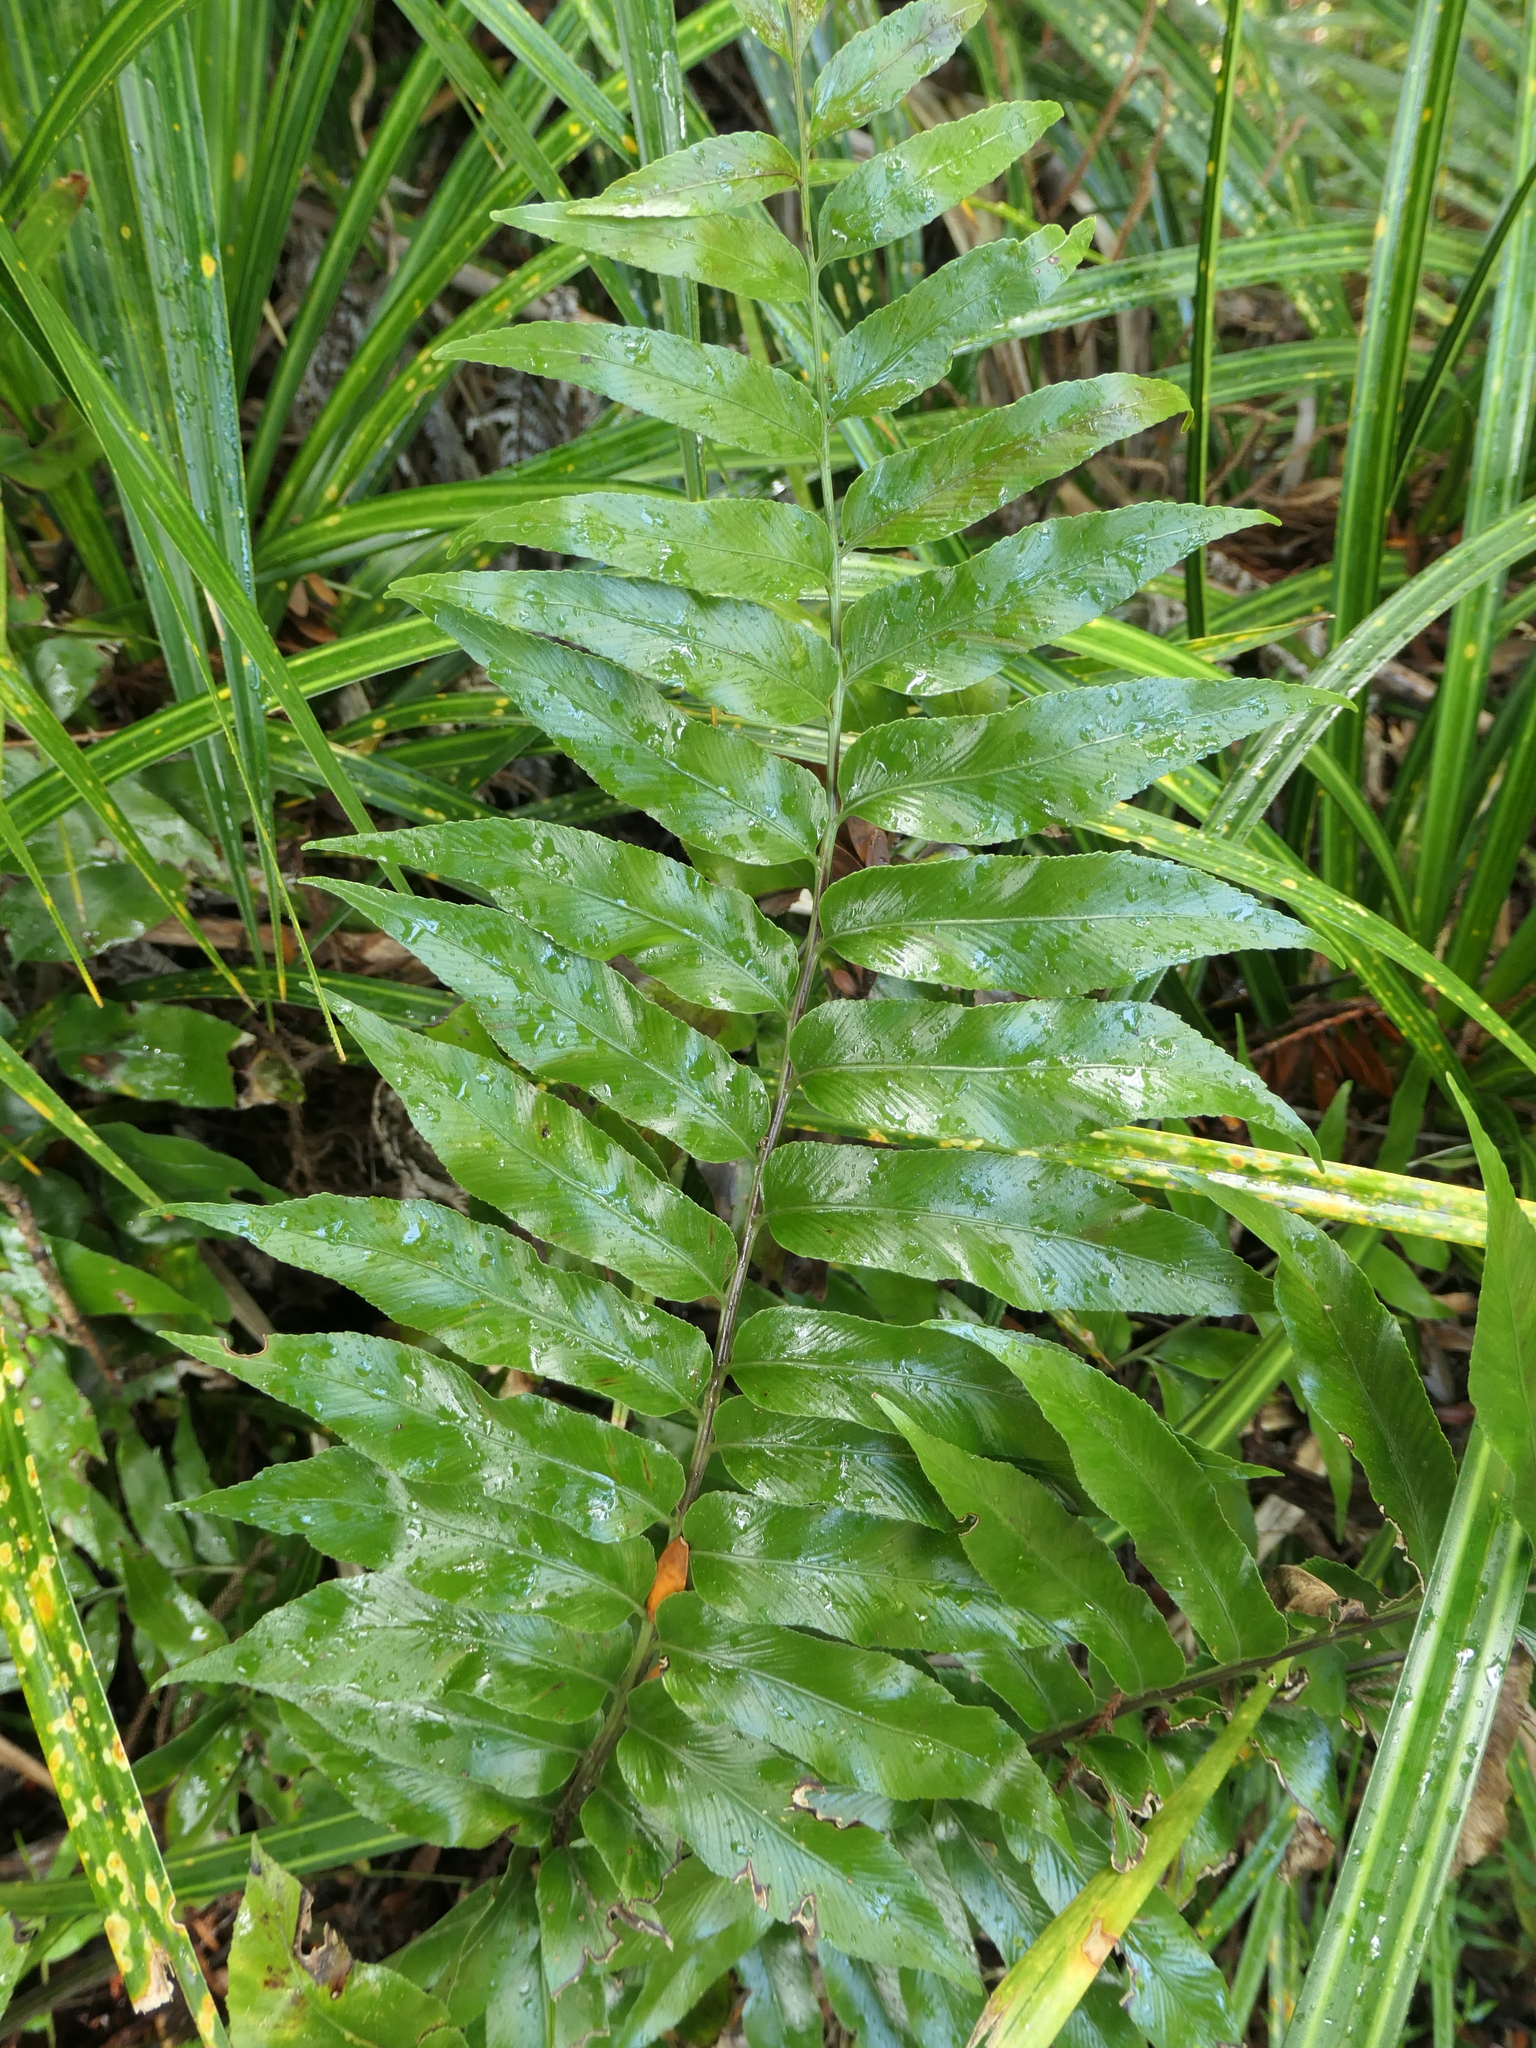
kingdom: Plantae
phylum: Tracheophyta
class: Polypodiopsida
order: Polypodiales
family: Aspleniaceae
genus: Asplenium
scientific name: Asplenium oblongifolium
